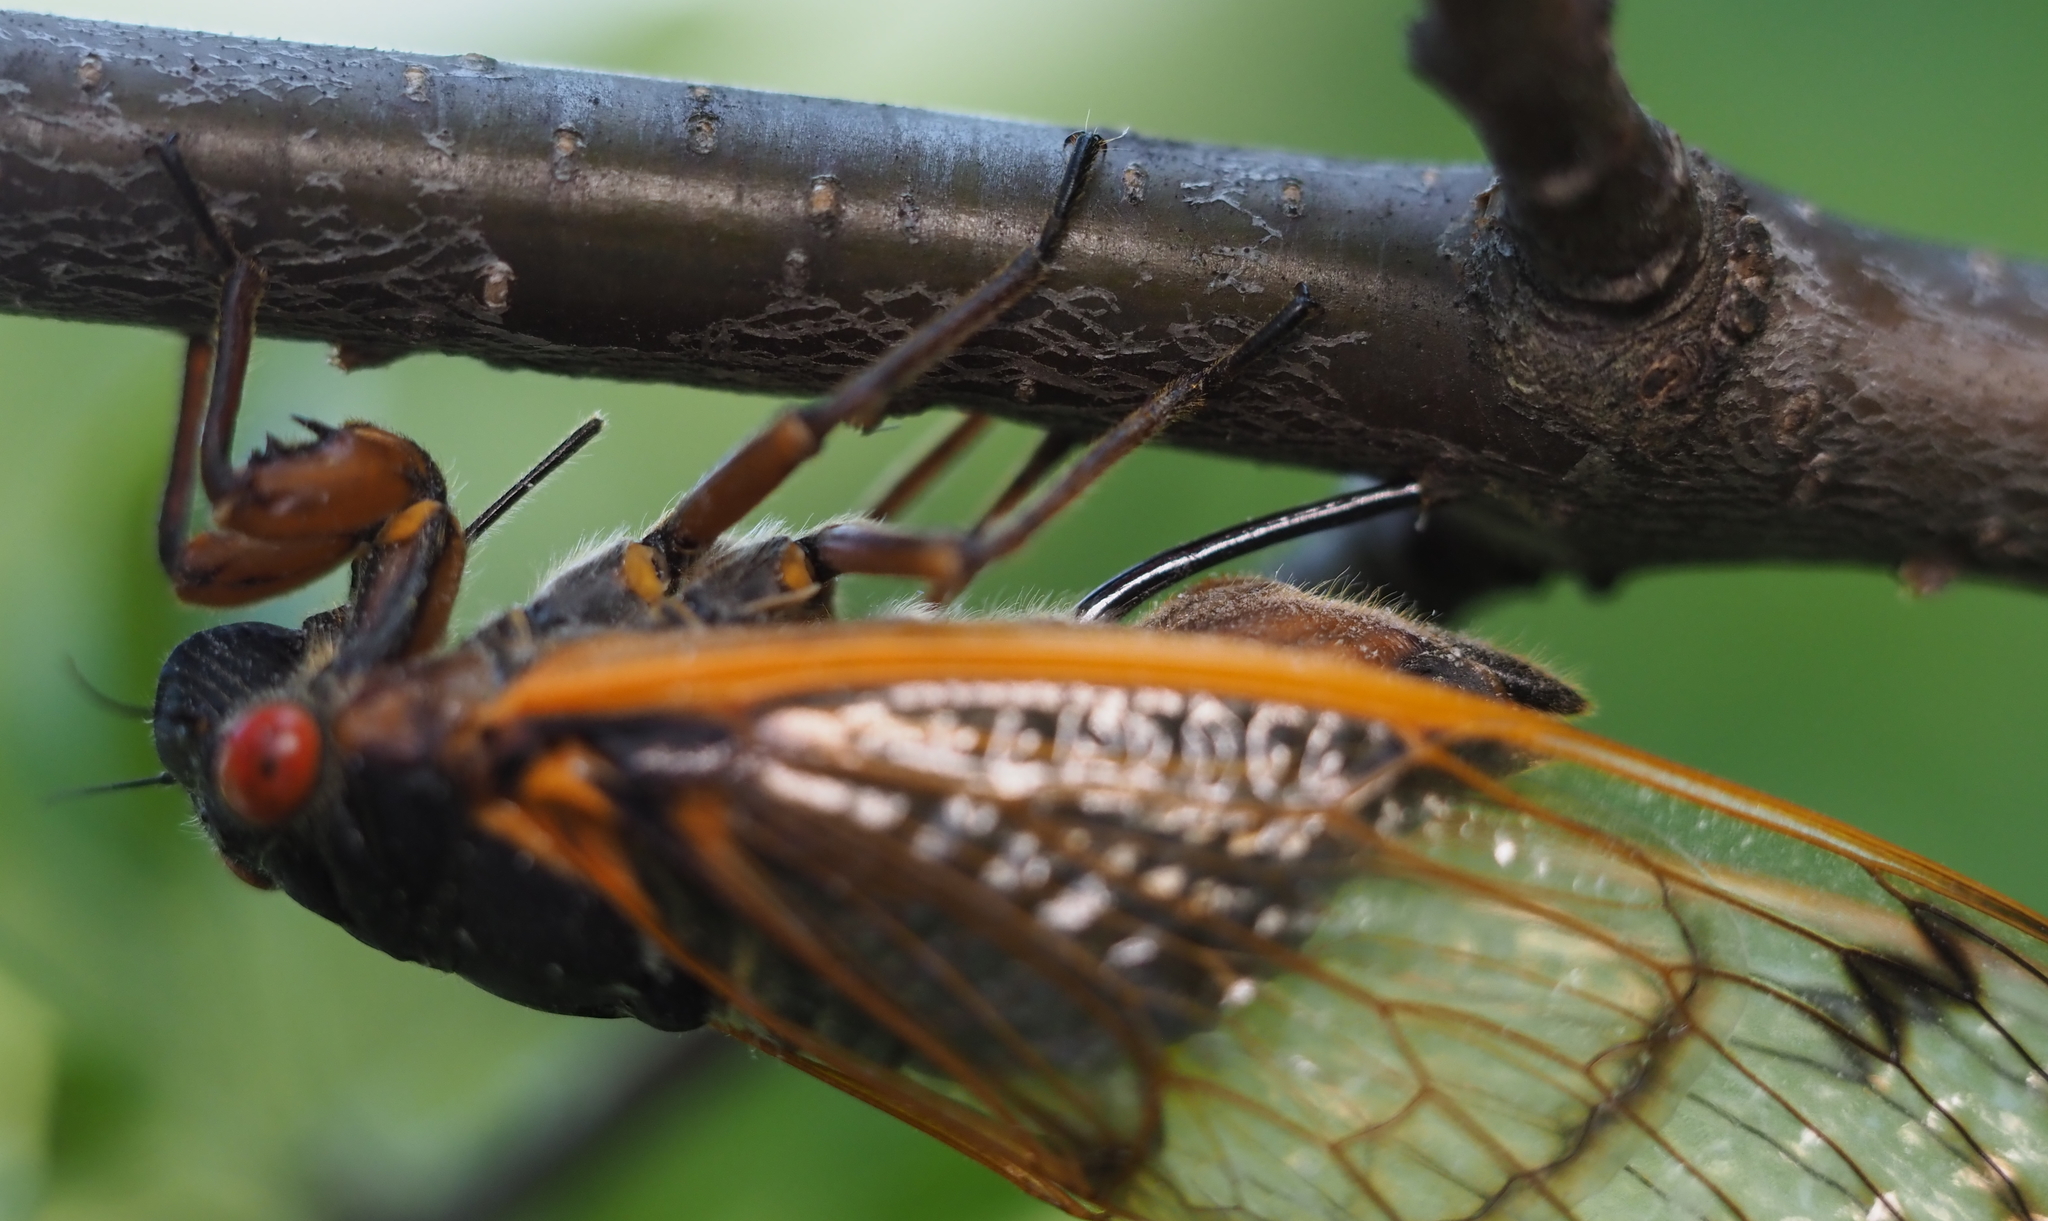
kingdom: Animalia
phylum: Arthropoda
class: Insecta
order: Hemiptera
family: Cicadidae
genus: Magicicada
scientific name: Magicicada septendecim
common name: Periodical cicada
